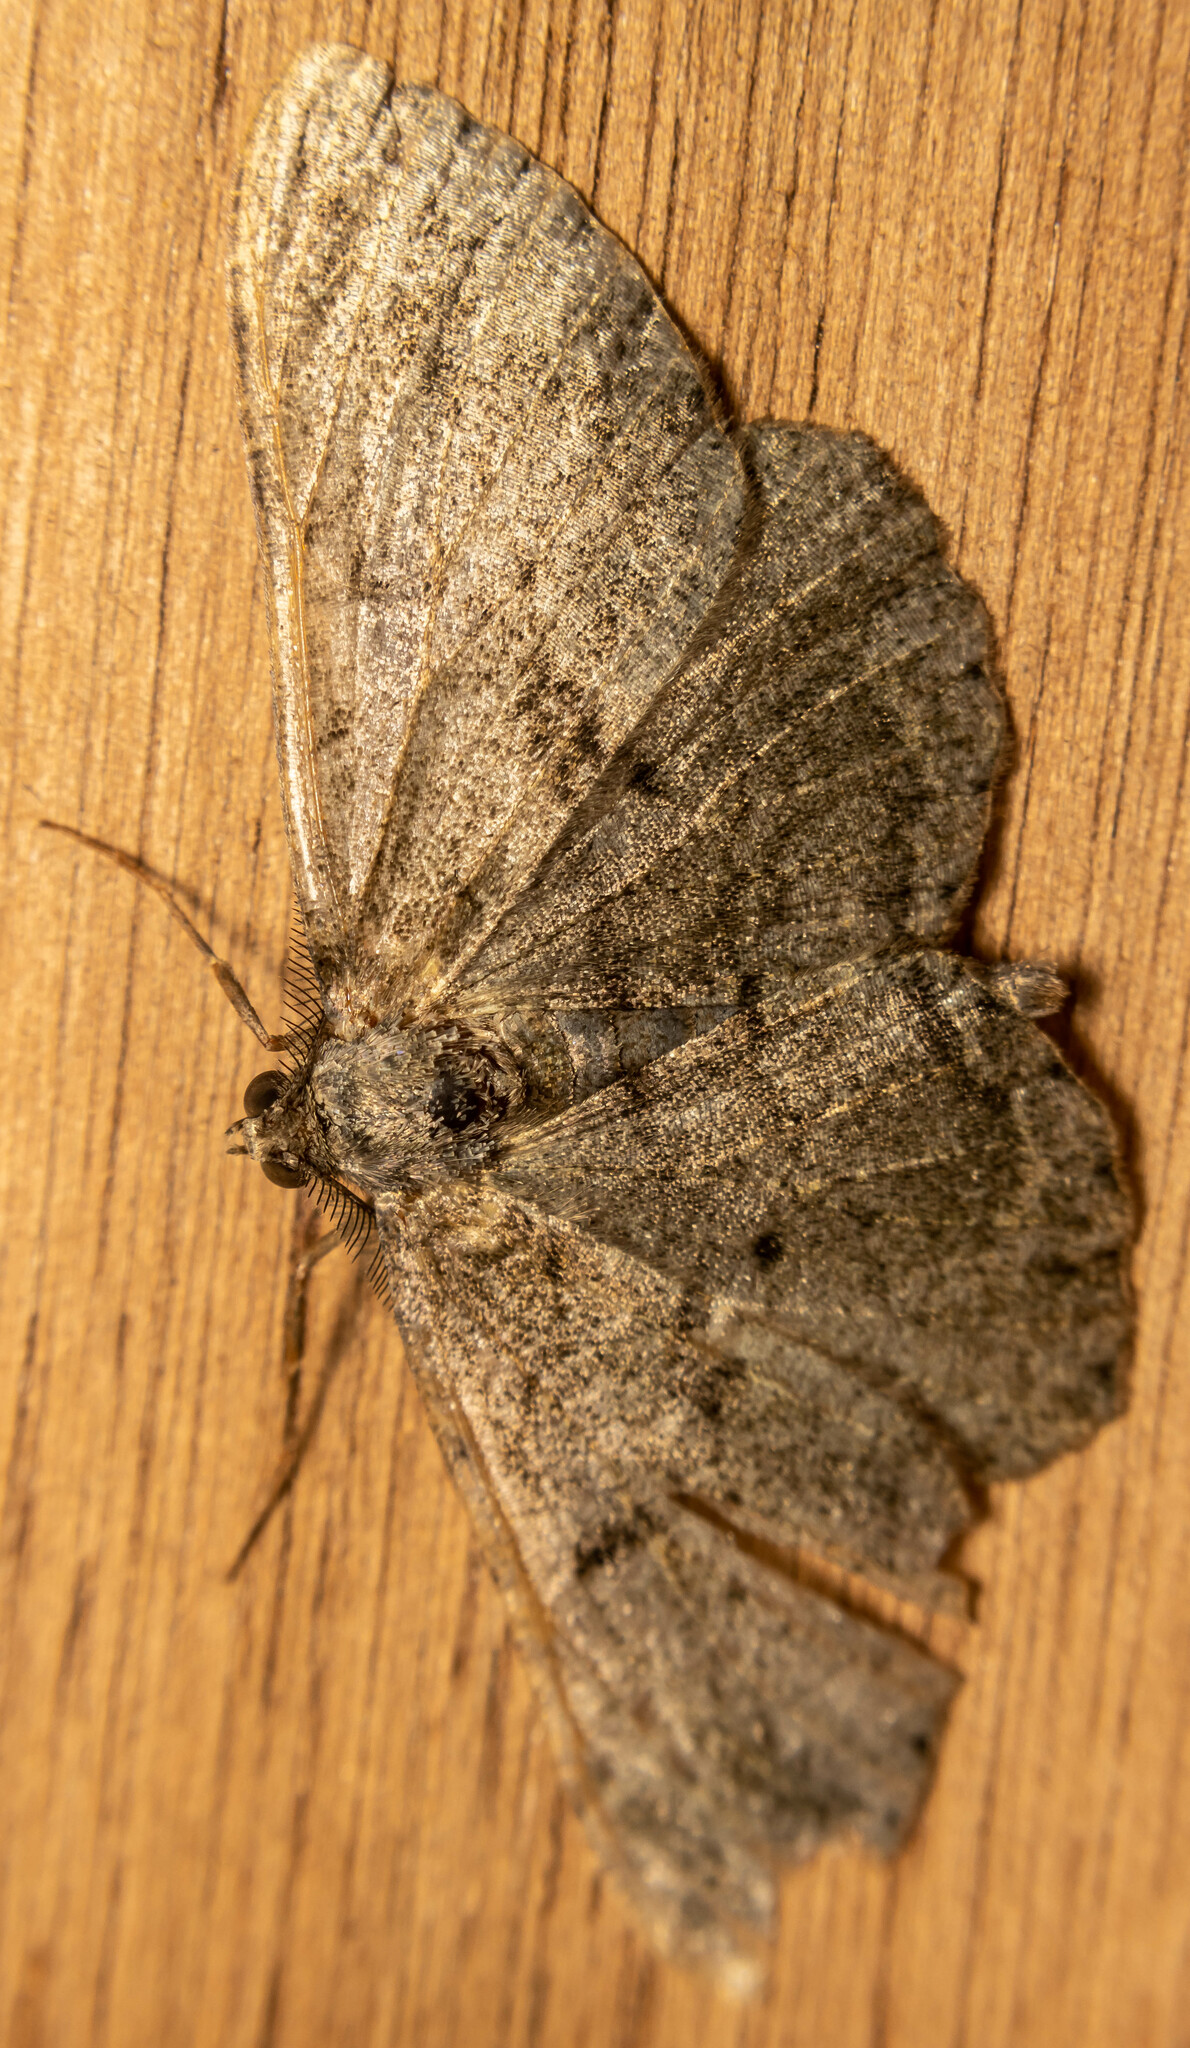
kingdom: Animalia
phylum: Arthropoda
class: Insecta
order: Lepidoptera
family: Geometridae
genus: Alcis
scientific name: Alcis repandata
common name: Mottled beauty
